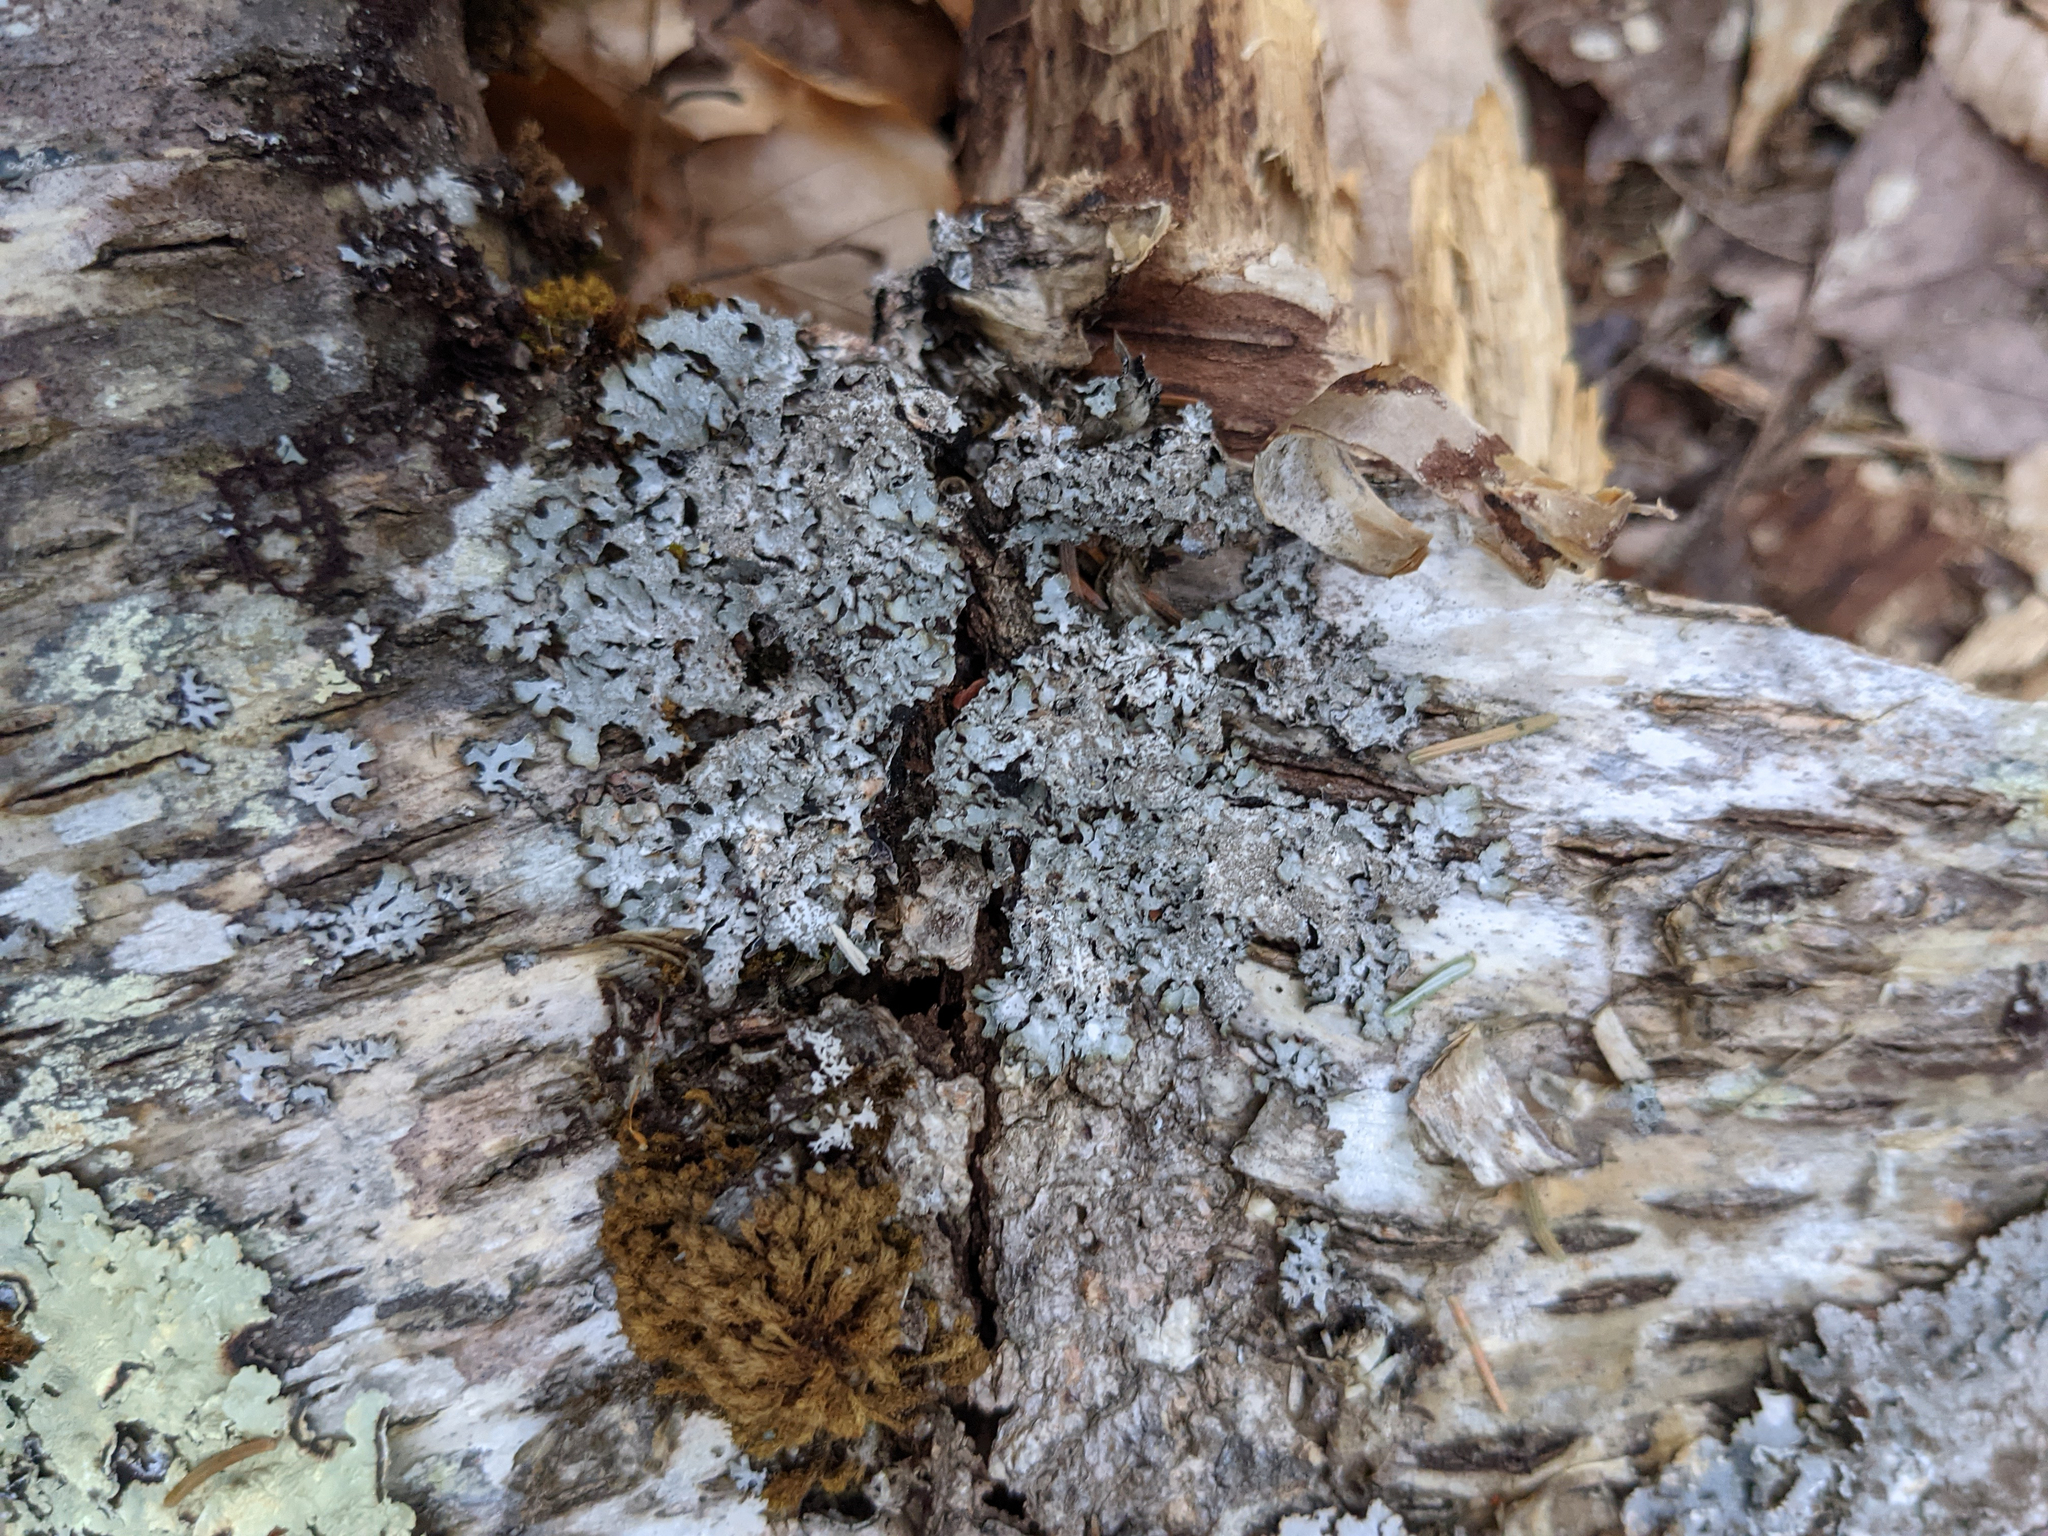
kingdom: Plantae
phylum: Bryophyta
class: Bryopsida
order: Orthotrichales
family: Orthotrichaceae
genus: Ulota
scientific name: Ulota crispa
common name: Crisped pincushion moss
